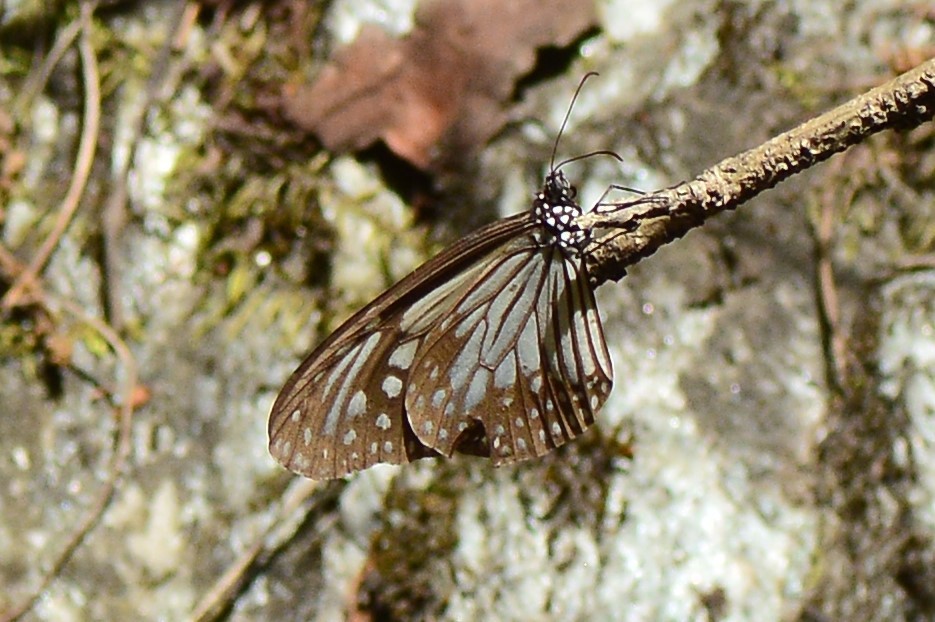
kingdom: Animalia
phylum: Arthropoda
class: Insecta
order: Lepidoptera
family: Nymphalidae
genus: Parantica
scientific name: Parantica aglea
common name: Glassy tiger
